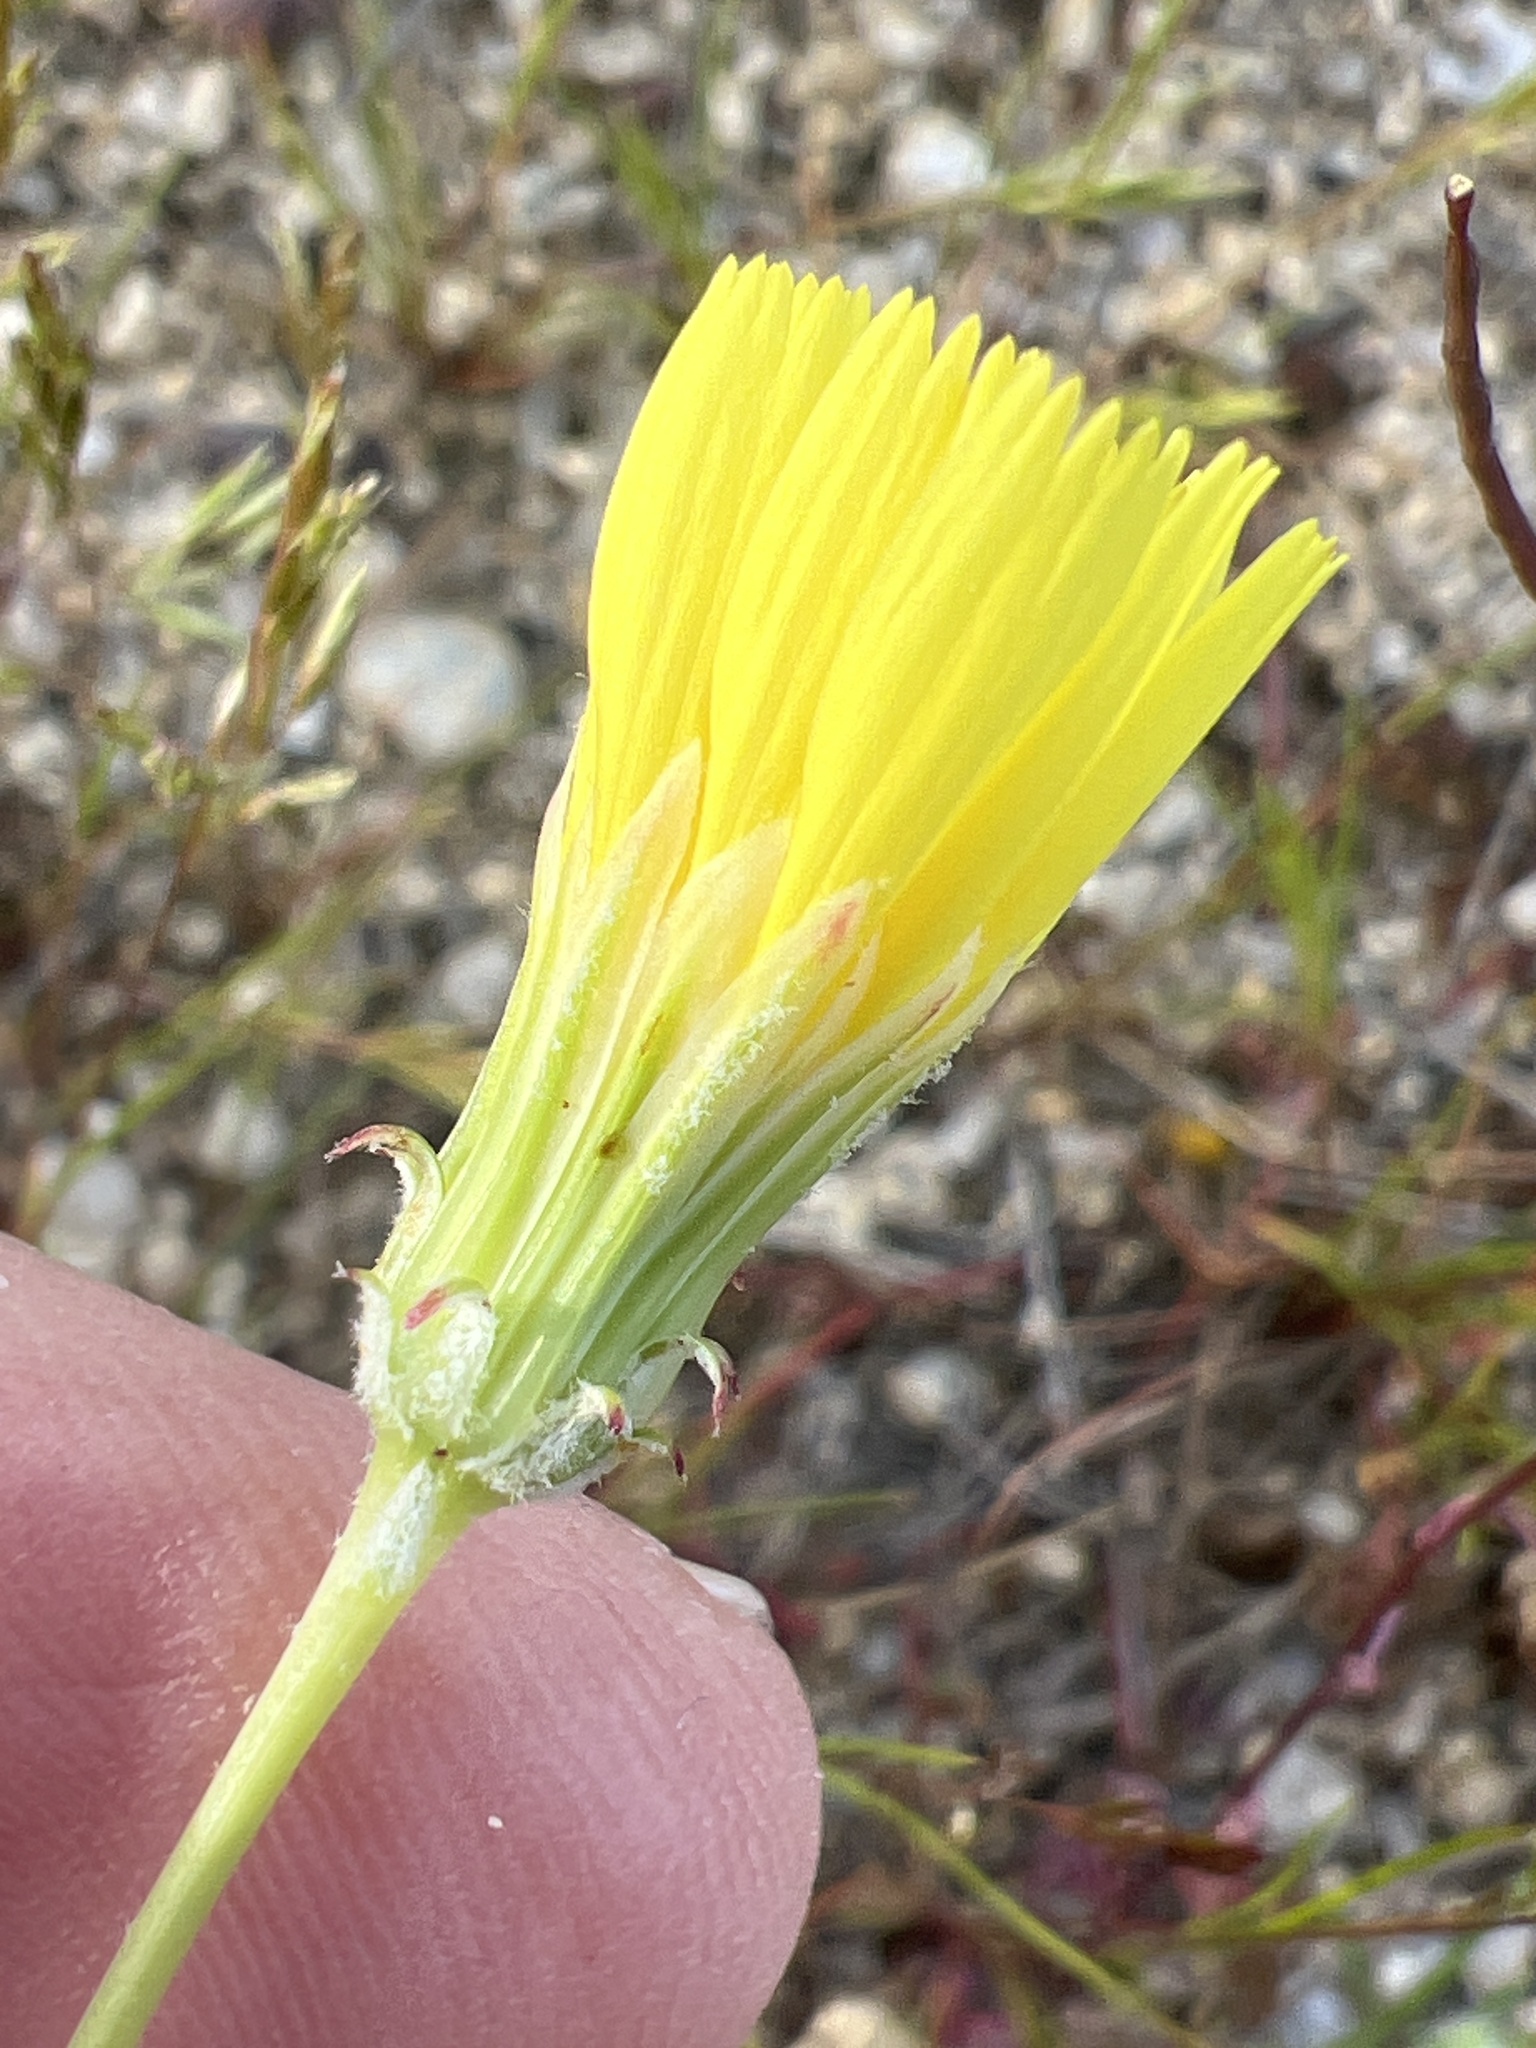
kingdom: Plantae
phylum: Tracheophyta
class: Magnoliopsida
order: Asterales
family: Asteraceae
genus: Malacothrix
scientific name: Malacothrix glabrata
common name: Smooth desert-dandelion
